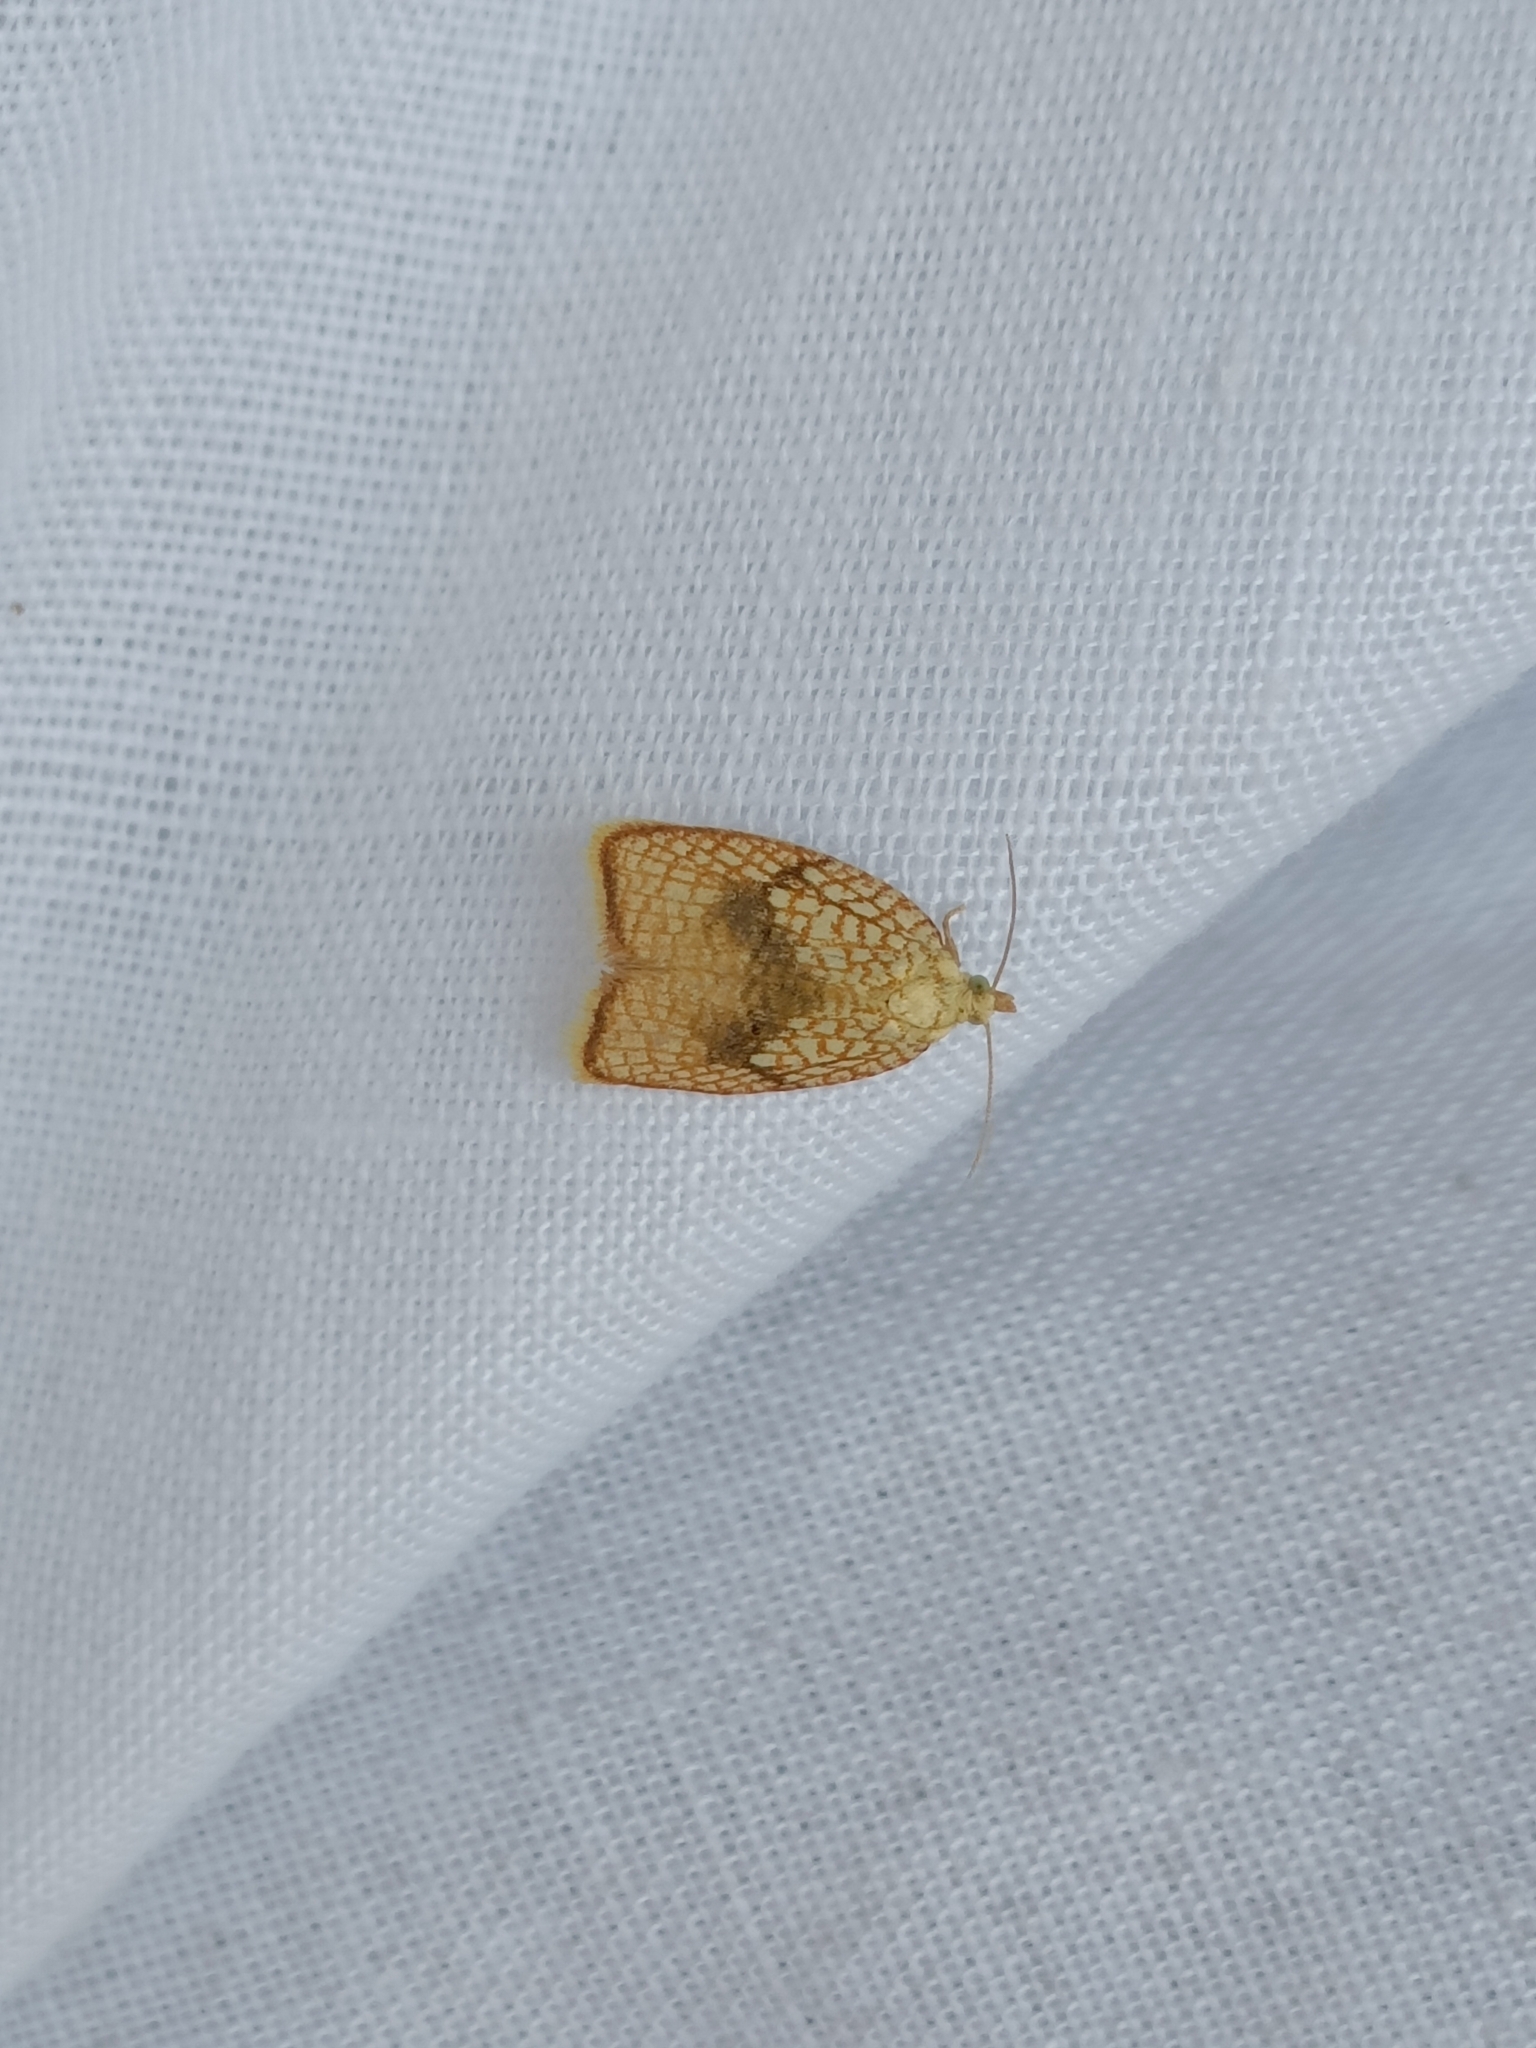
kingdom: Animalia
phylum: Arthropoda
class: Insecta
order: Lepidoptera
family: Tortricidae
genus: Acleris
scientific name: Acleris forsskaleana
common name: Maple button
